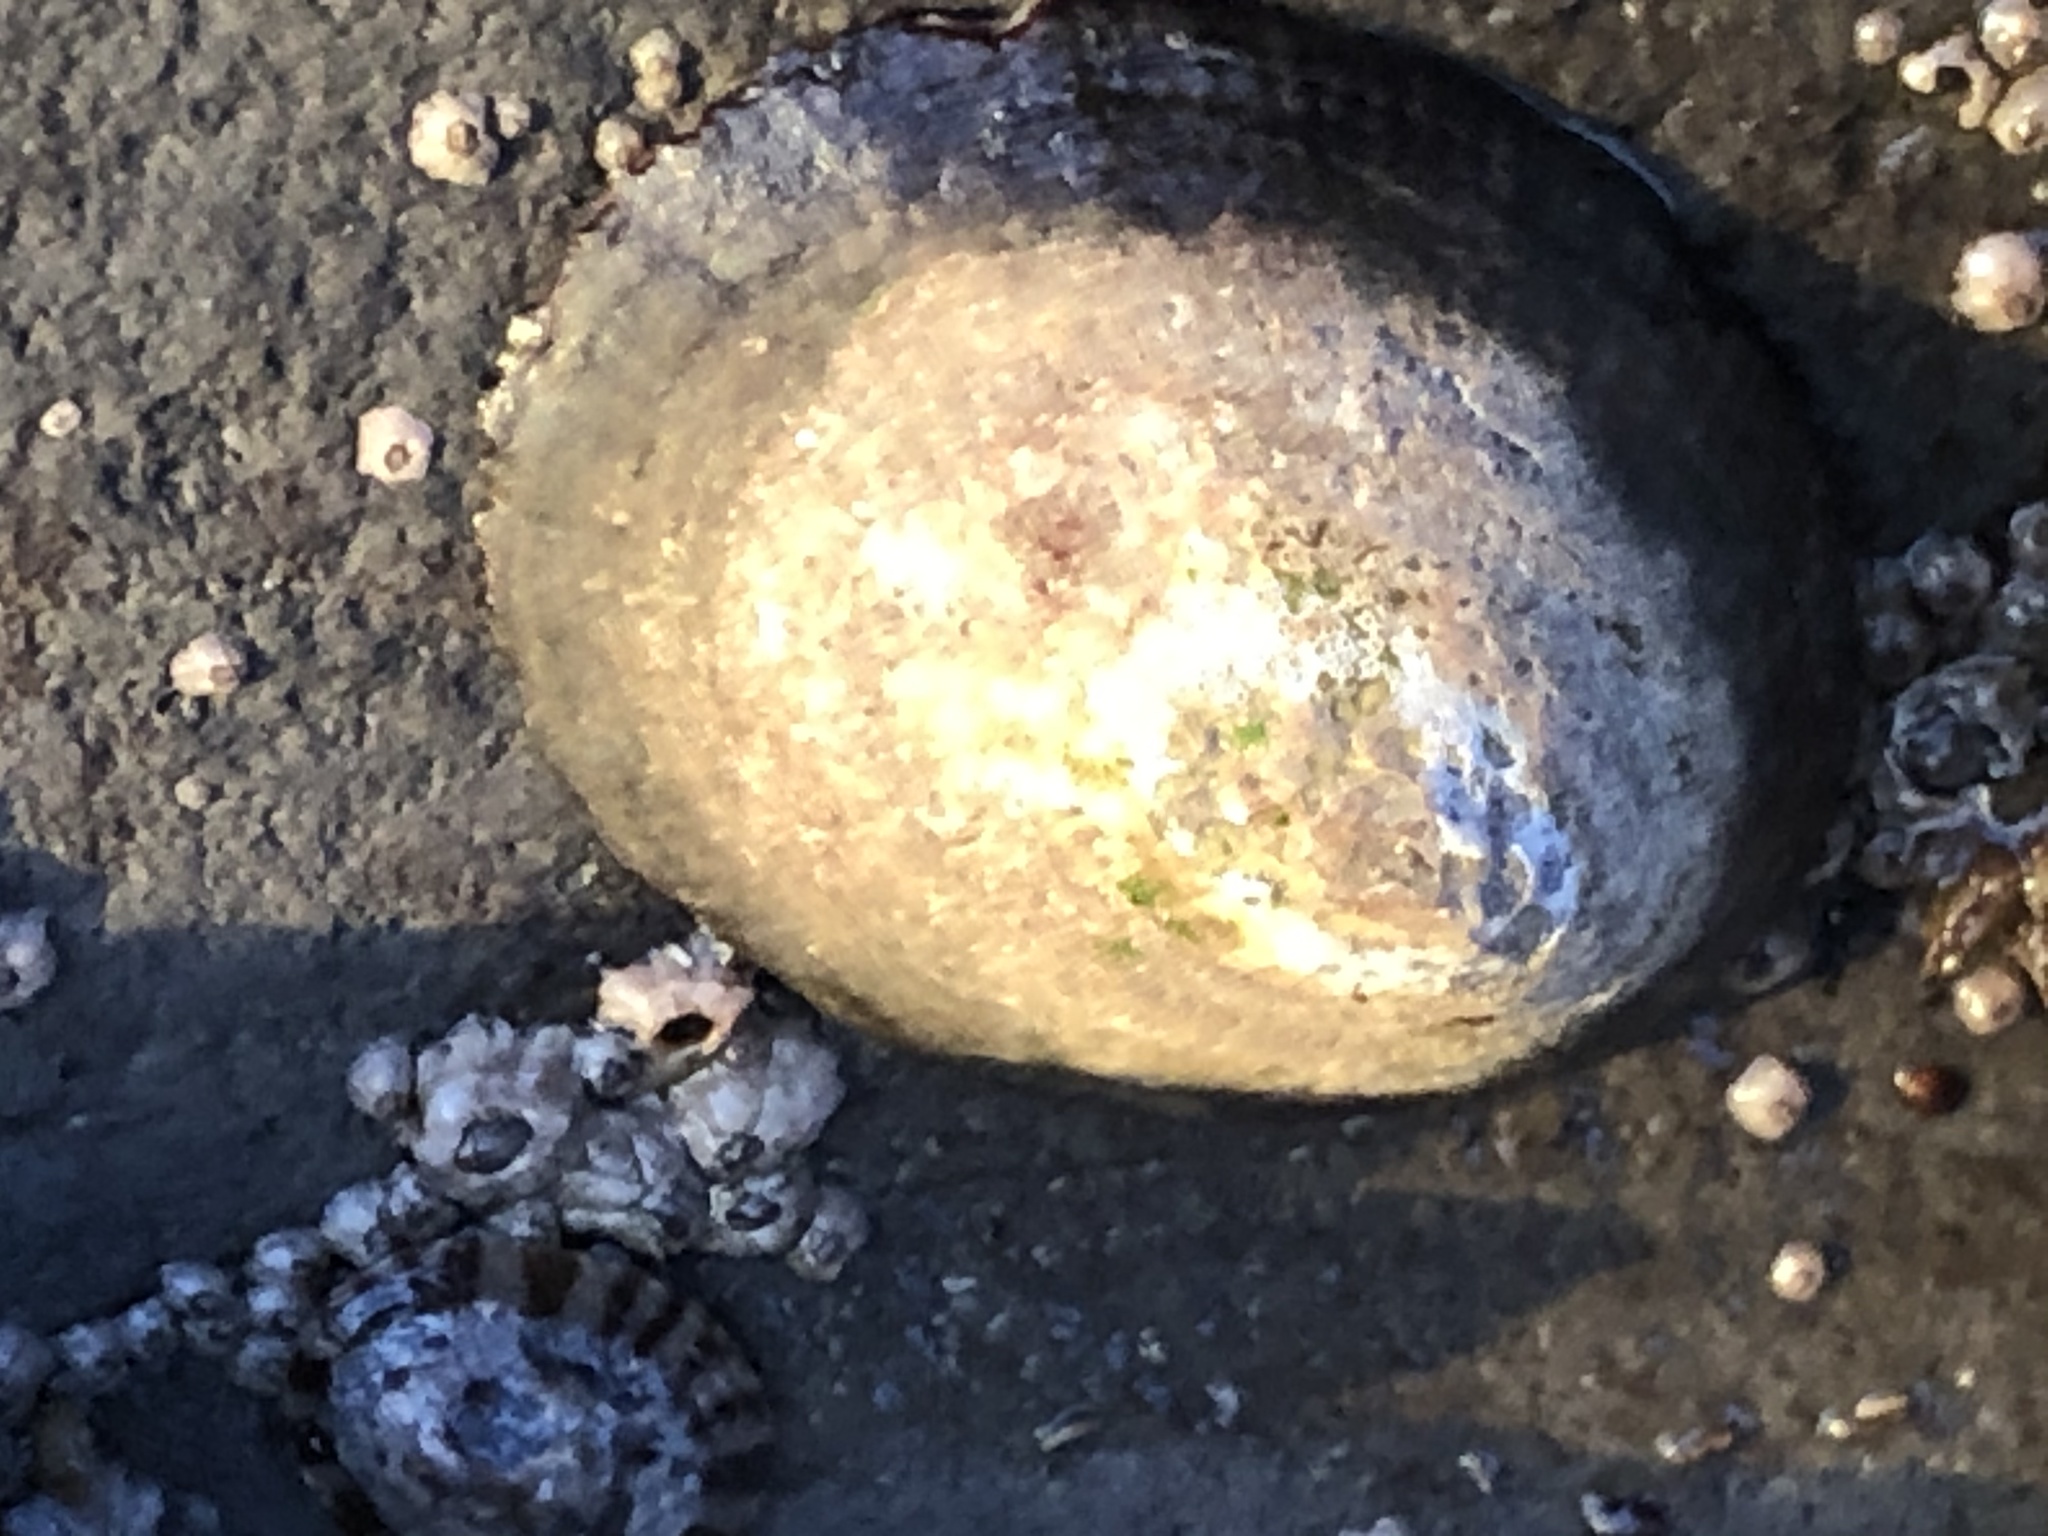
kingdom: Animalia
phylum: Mollusca
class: Gastropoda
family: Lottiidae
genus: Lottia
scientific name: Lottia gigantea
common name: Owl limpet
